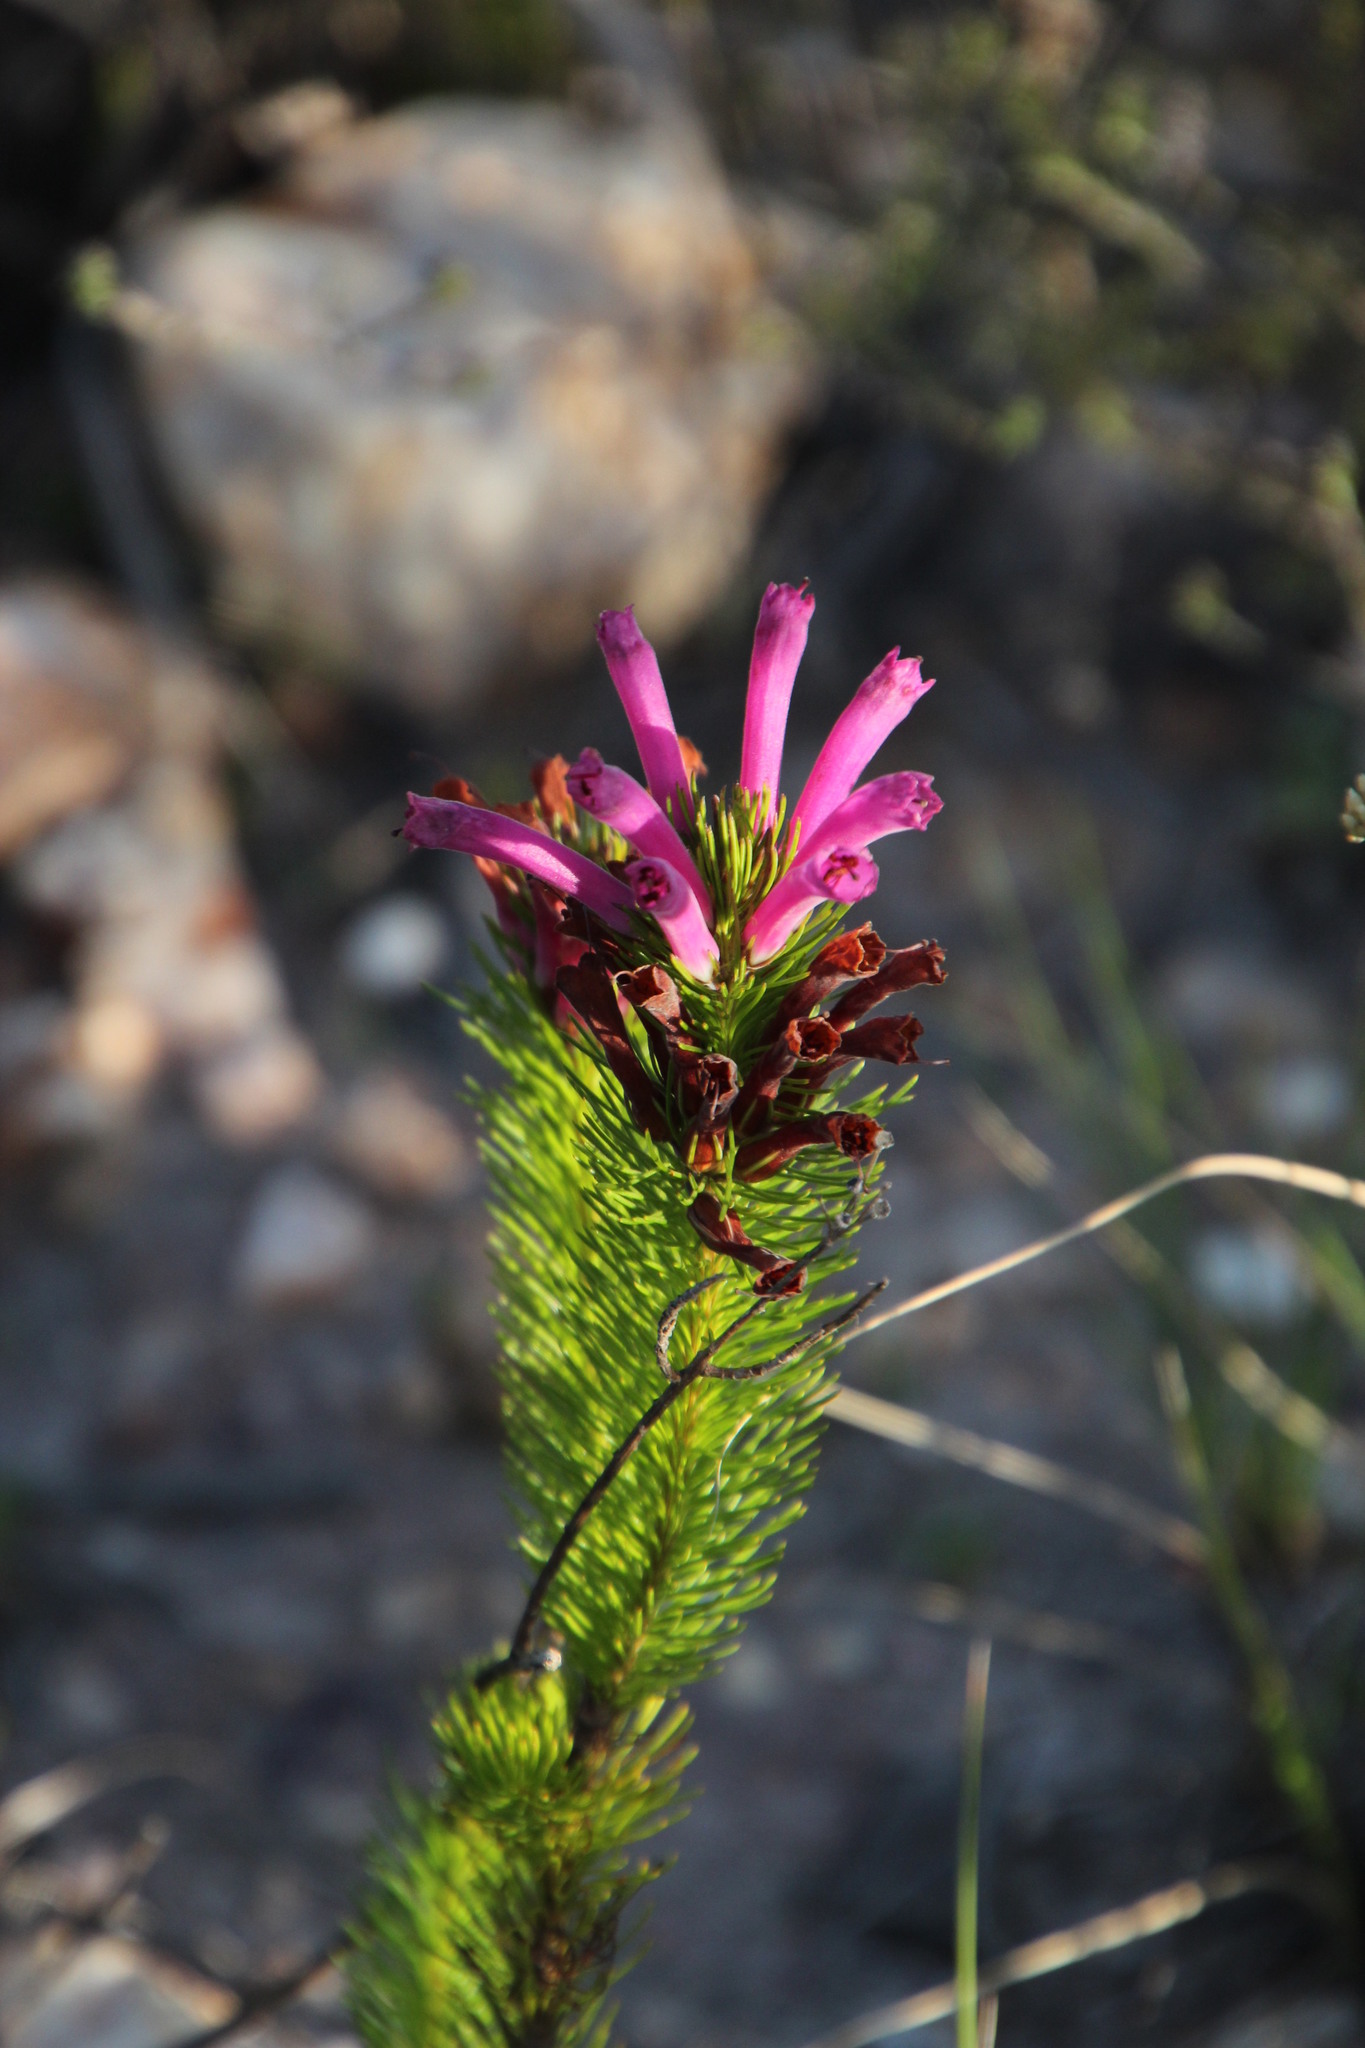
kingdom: Plantae
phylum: Tracheophyta
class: Magnoliopsida
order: Ericales
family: Ericaceae
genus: Erica
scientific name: Erica vestita
